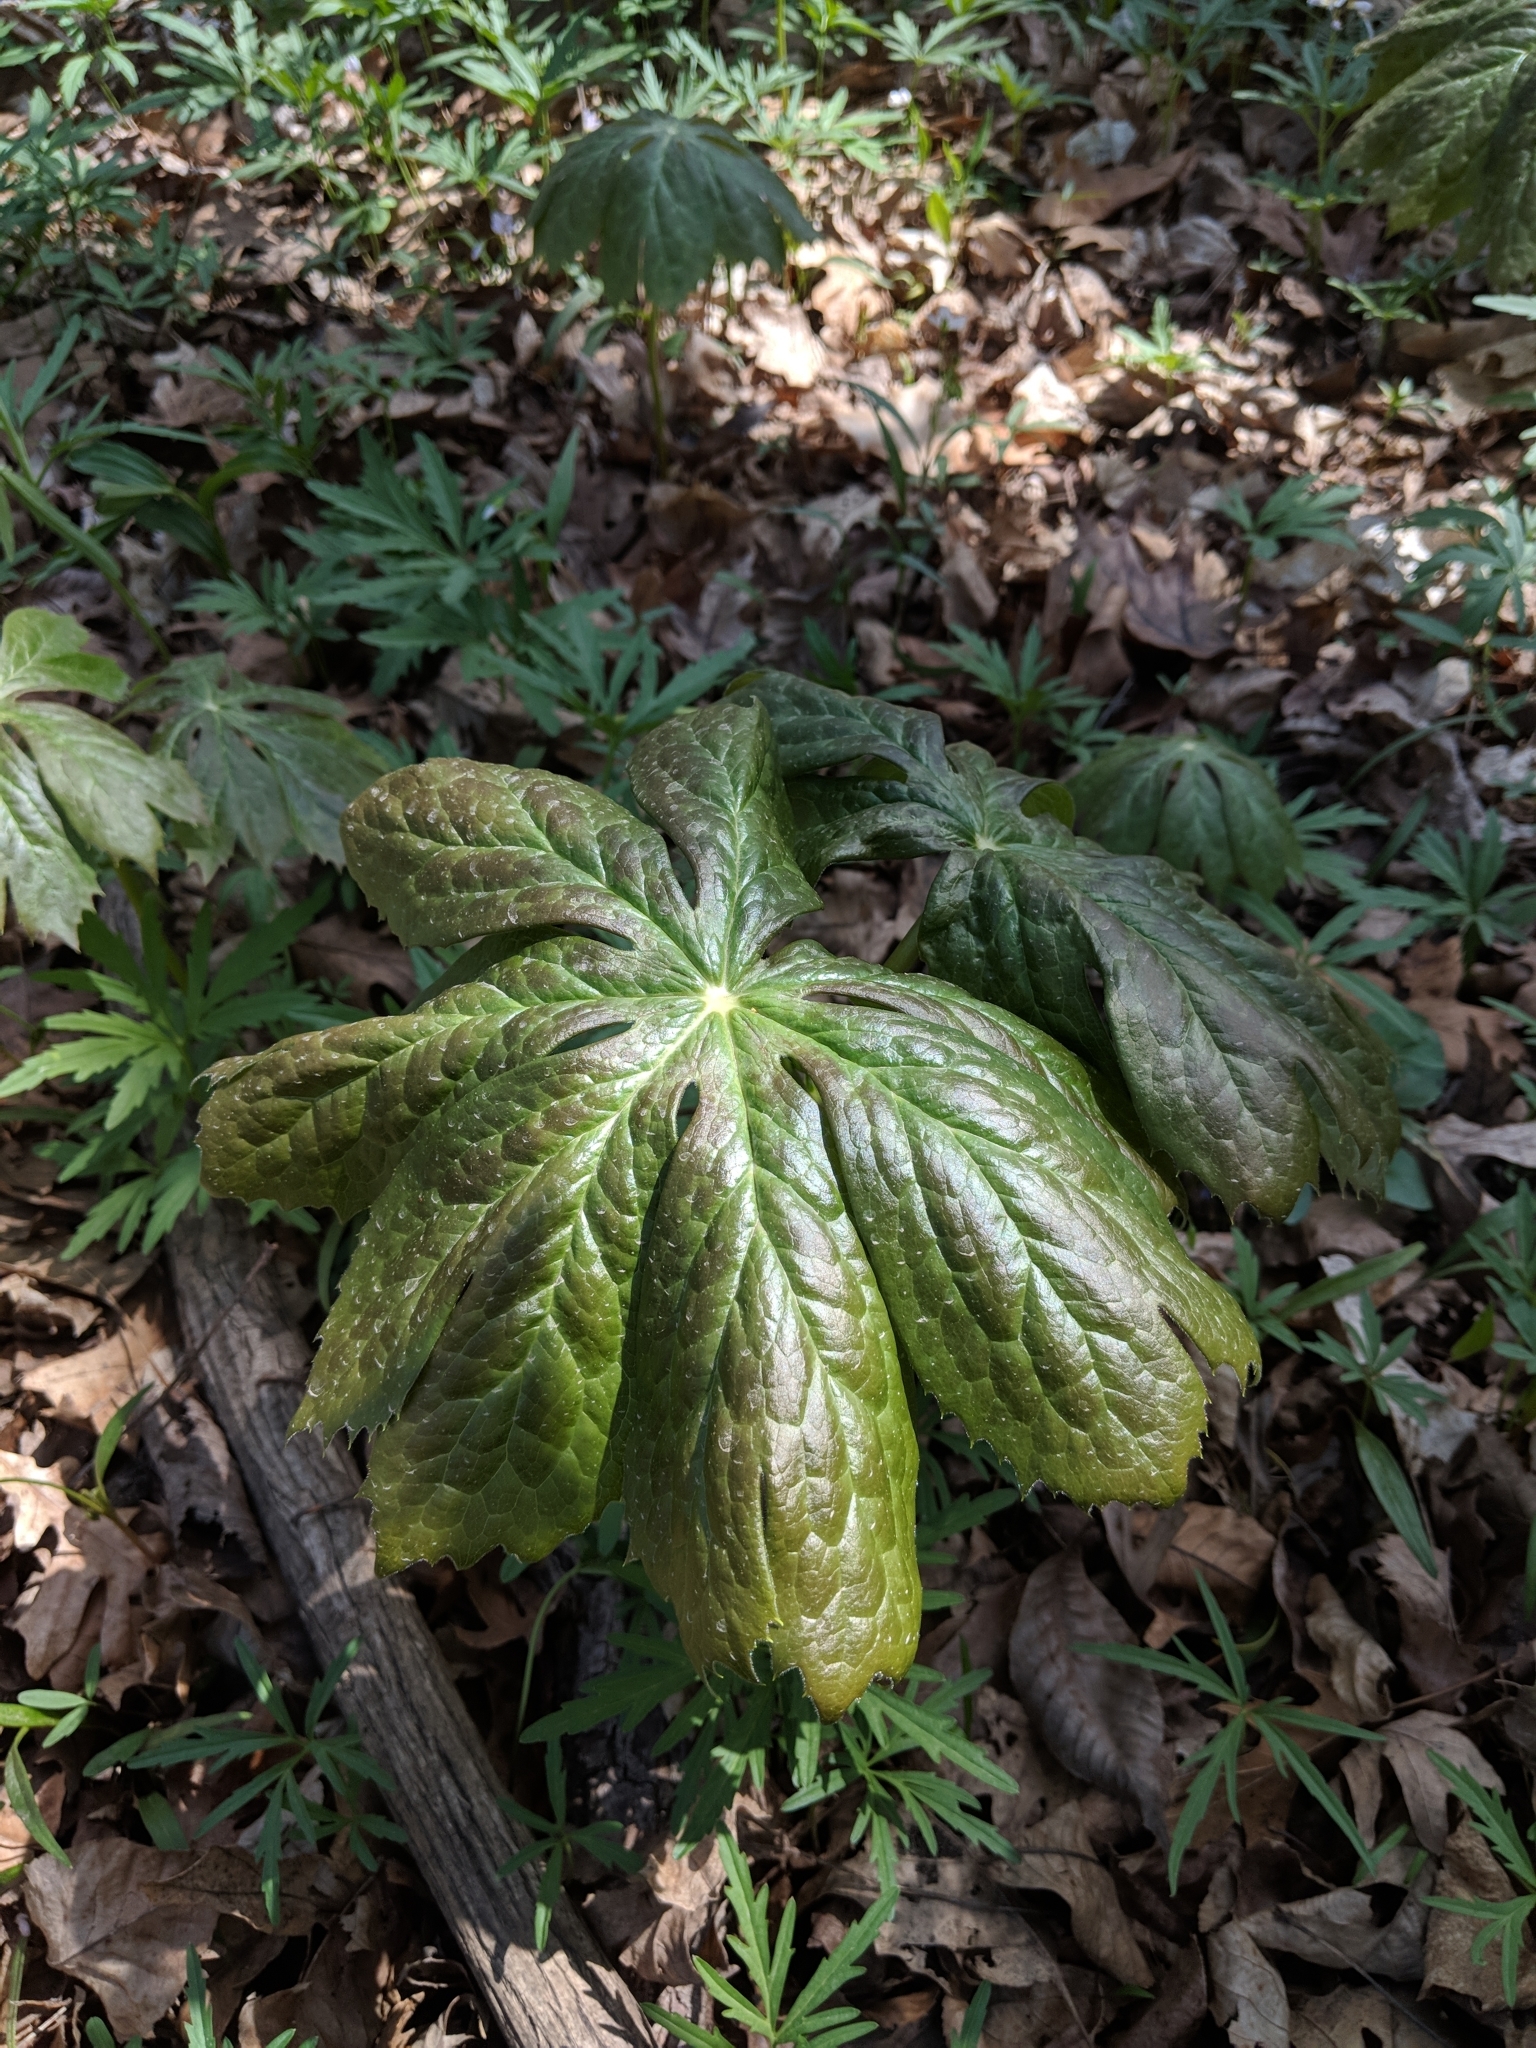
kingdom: Plantae
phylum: Tracheophyta
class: Magnoliopsida
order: Ranunculales
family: Berberidaceae
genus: Podophyllum
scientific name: Podophyllum peltatum
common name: Wild mandrake
